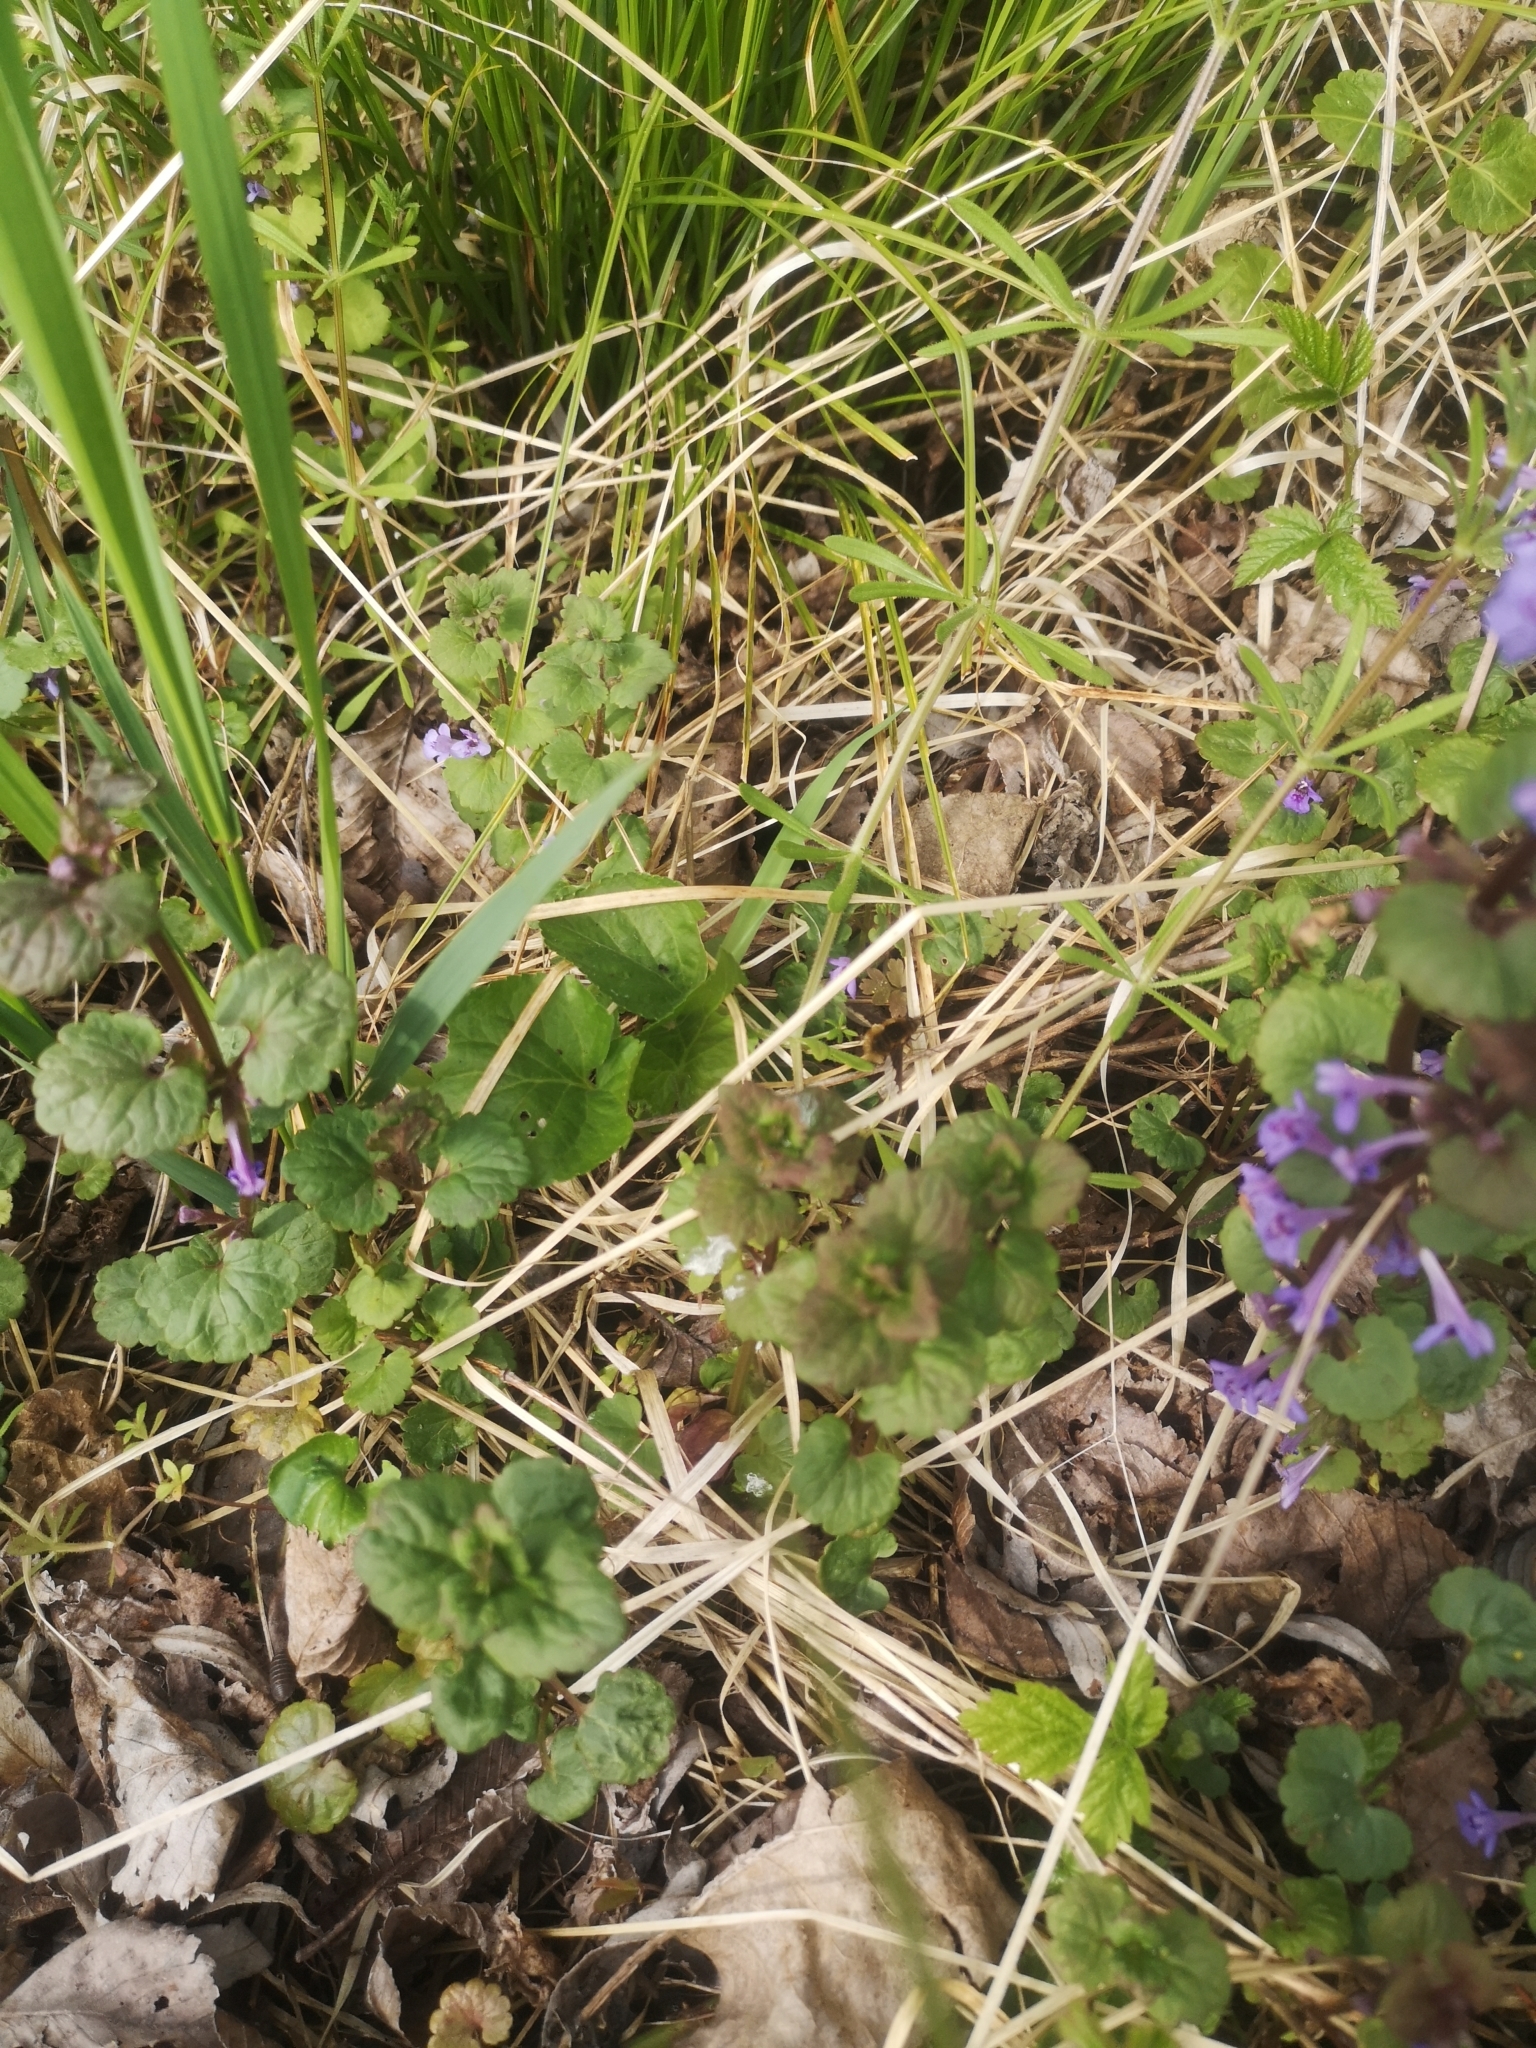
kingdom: Animalia
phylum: Arthropoda
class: Insecta
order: Diptera
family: Bombyliidae
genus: Bombylius
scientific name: Bombylius major
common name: Bee fly
